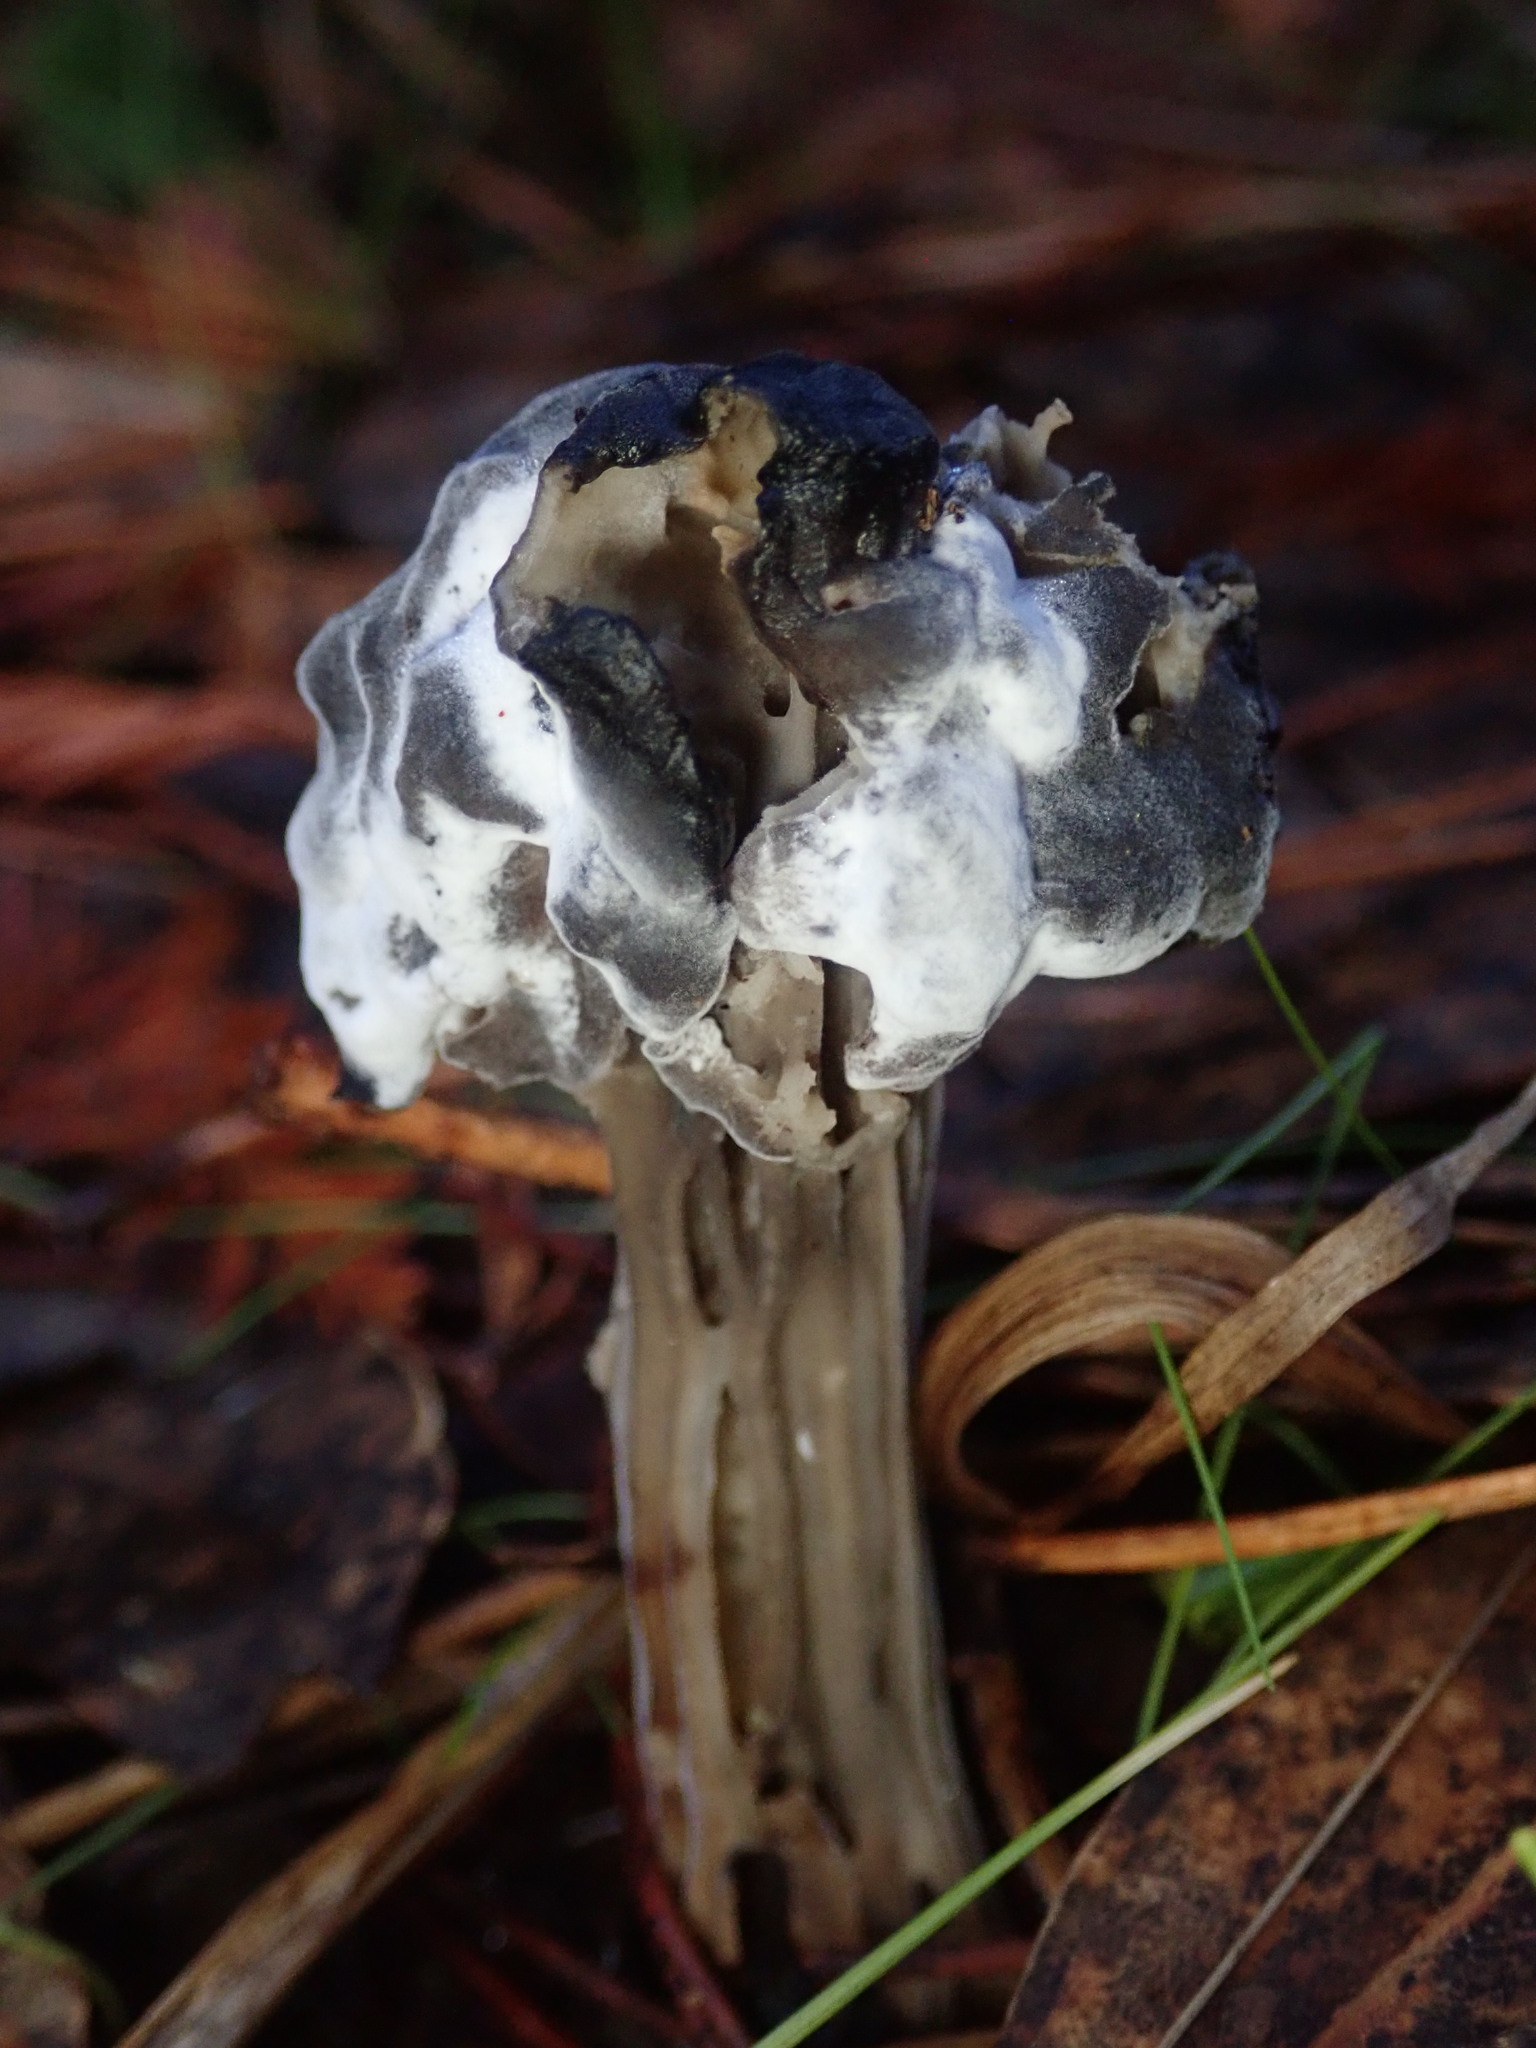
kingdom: Fungi
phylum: Ascomycota
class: Sordariomycetes
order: Hypocreales
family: Hypocreaceae
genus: Hypomyces
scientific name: Hypomyces cervinus
